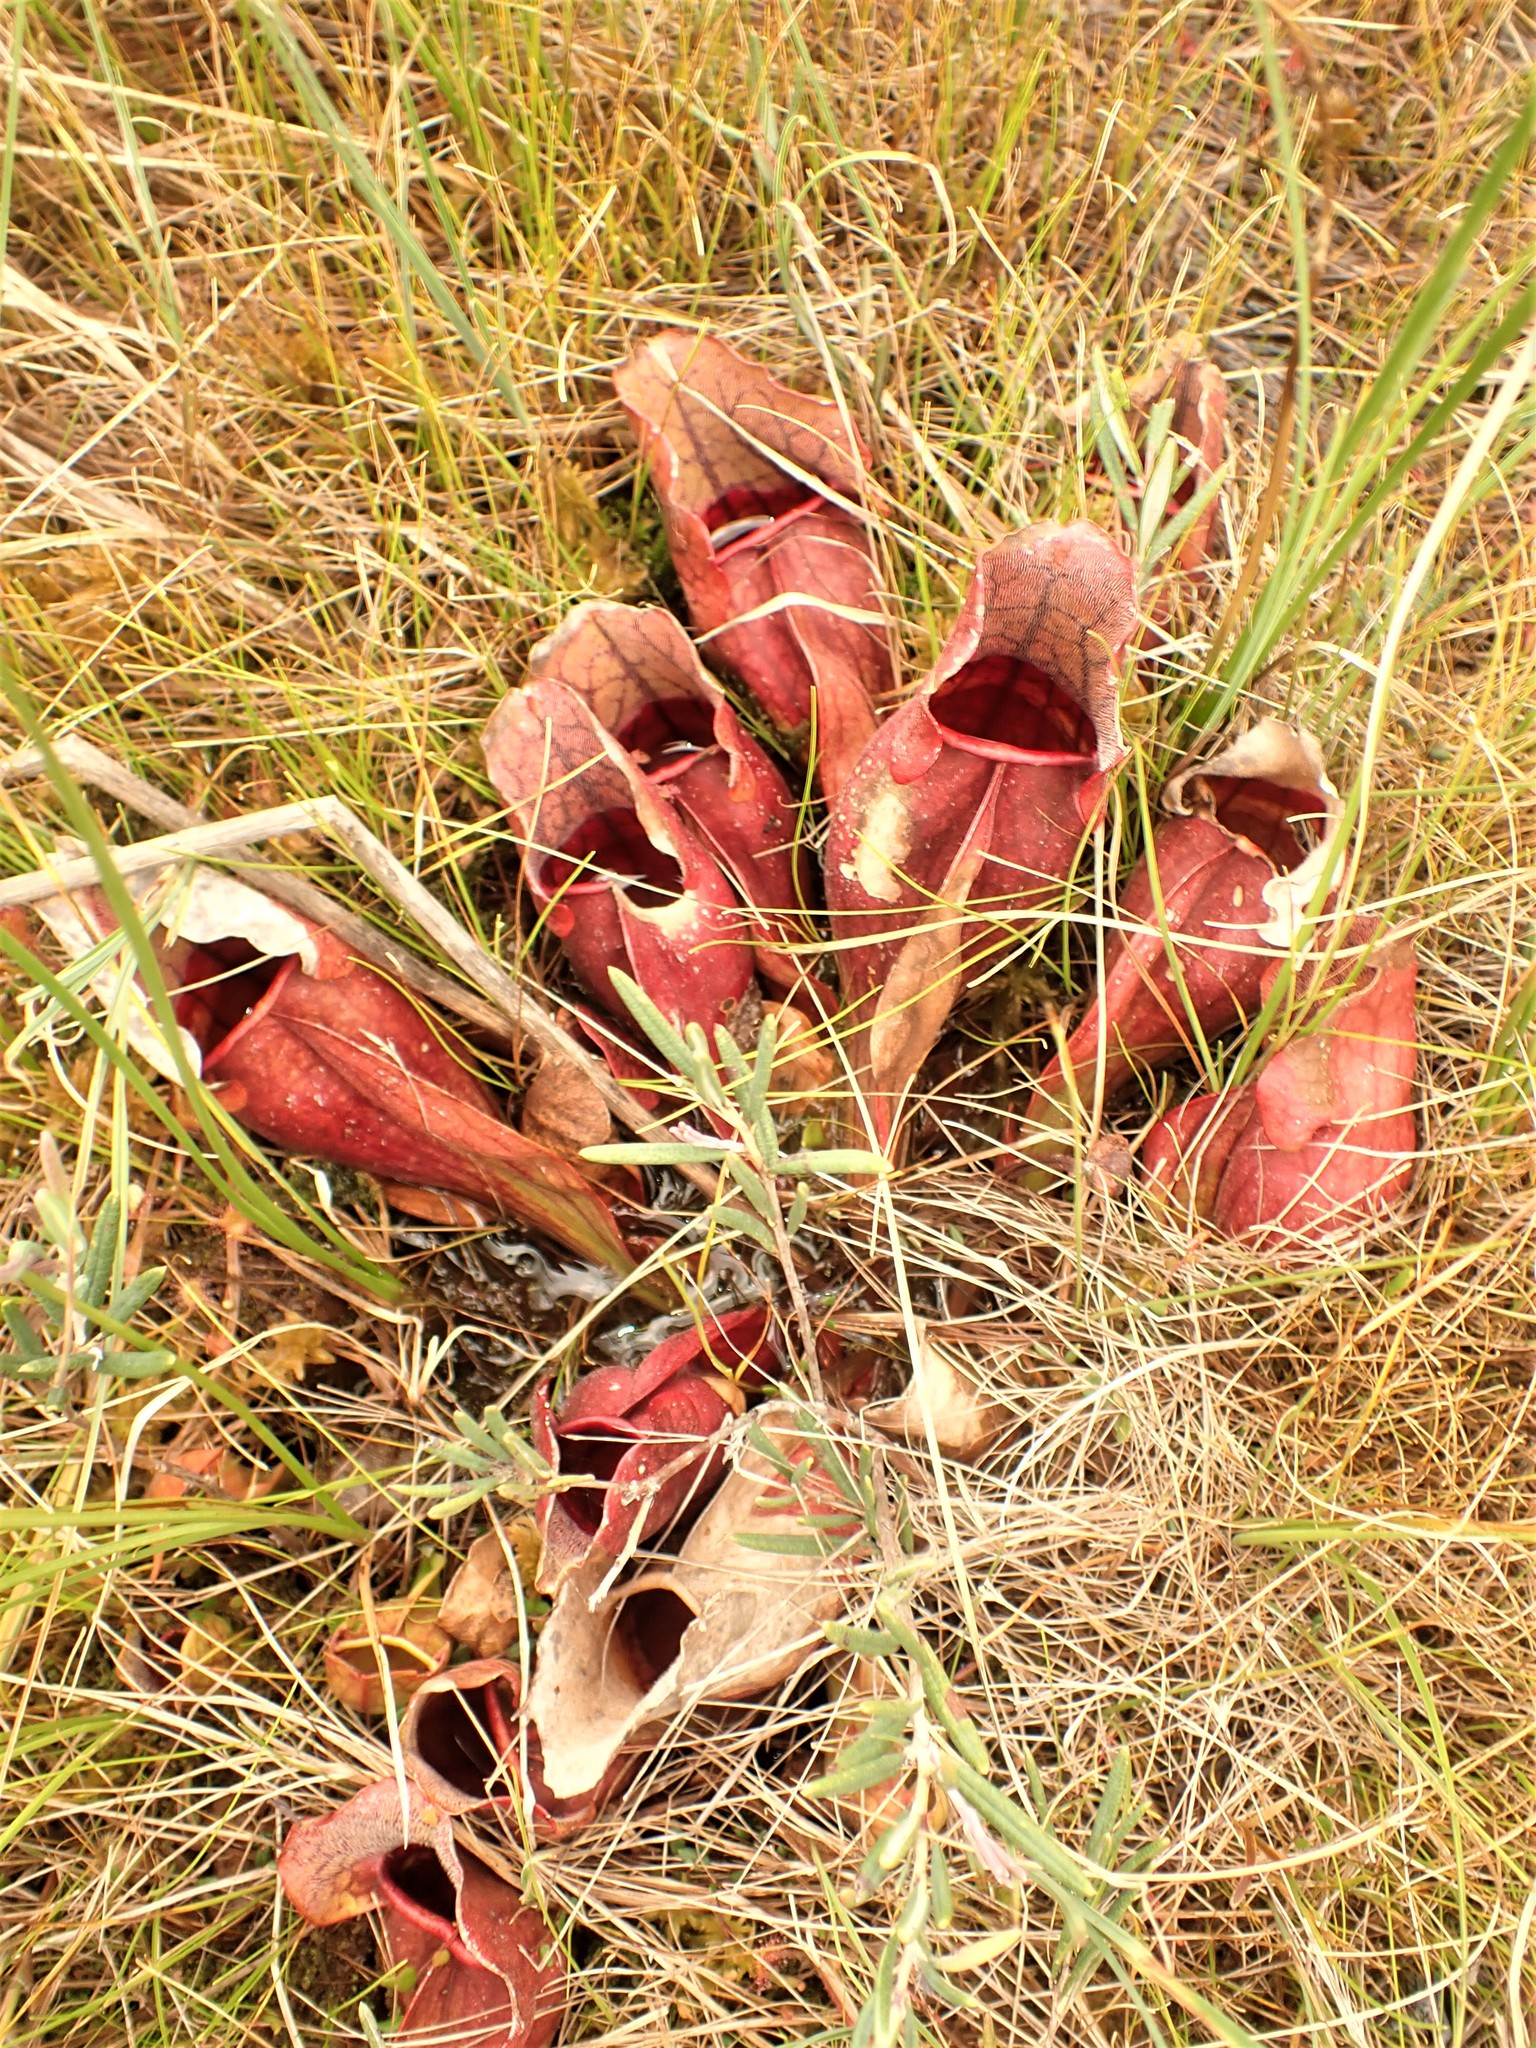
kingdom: Plantae
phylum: Tracheophyta
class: Magnoliopsida
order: Ericales
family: Sarraceniaceae
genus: Sarracenia
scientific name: Sarracenia purpurea
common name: Pitcherplant
